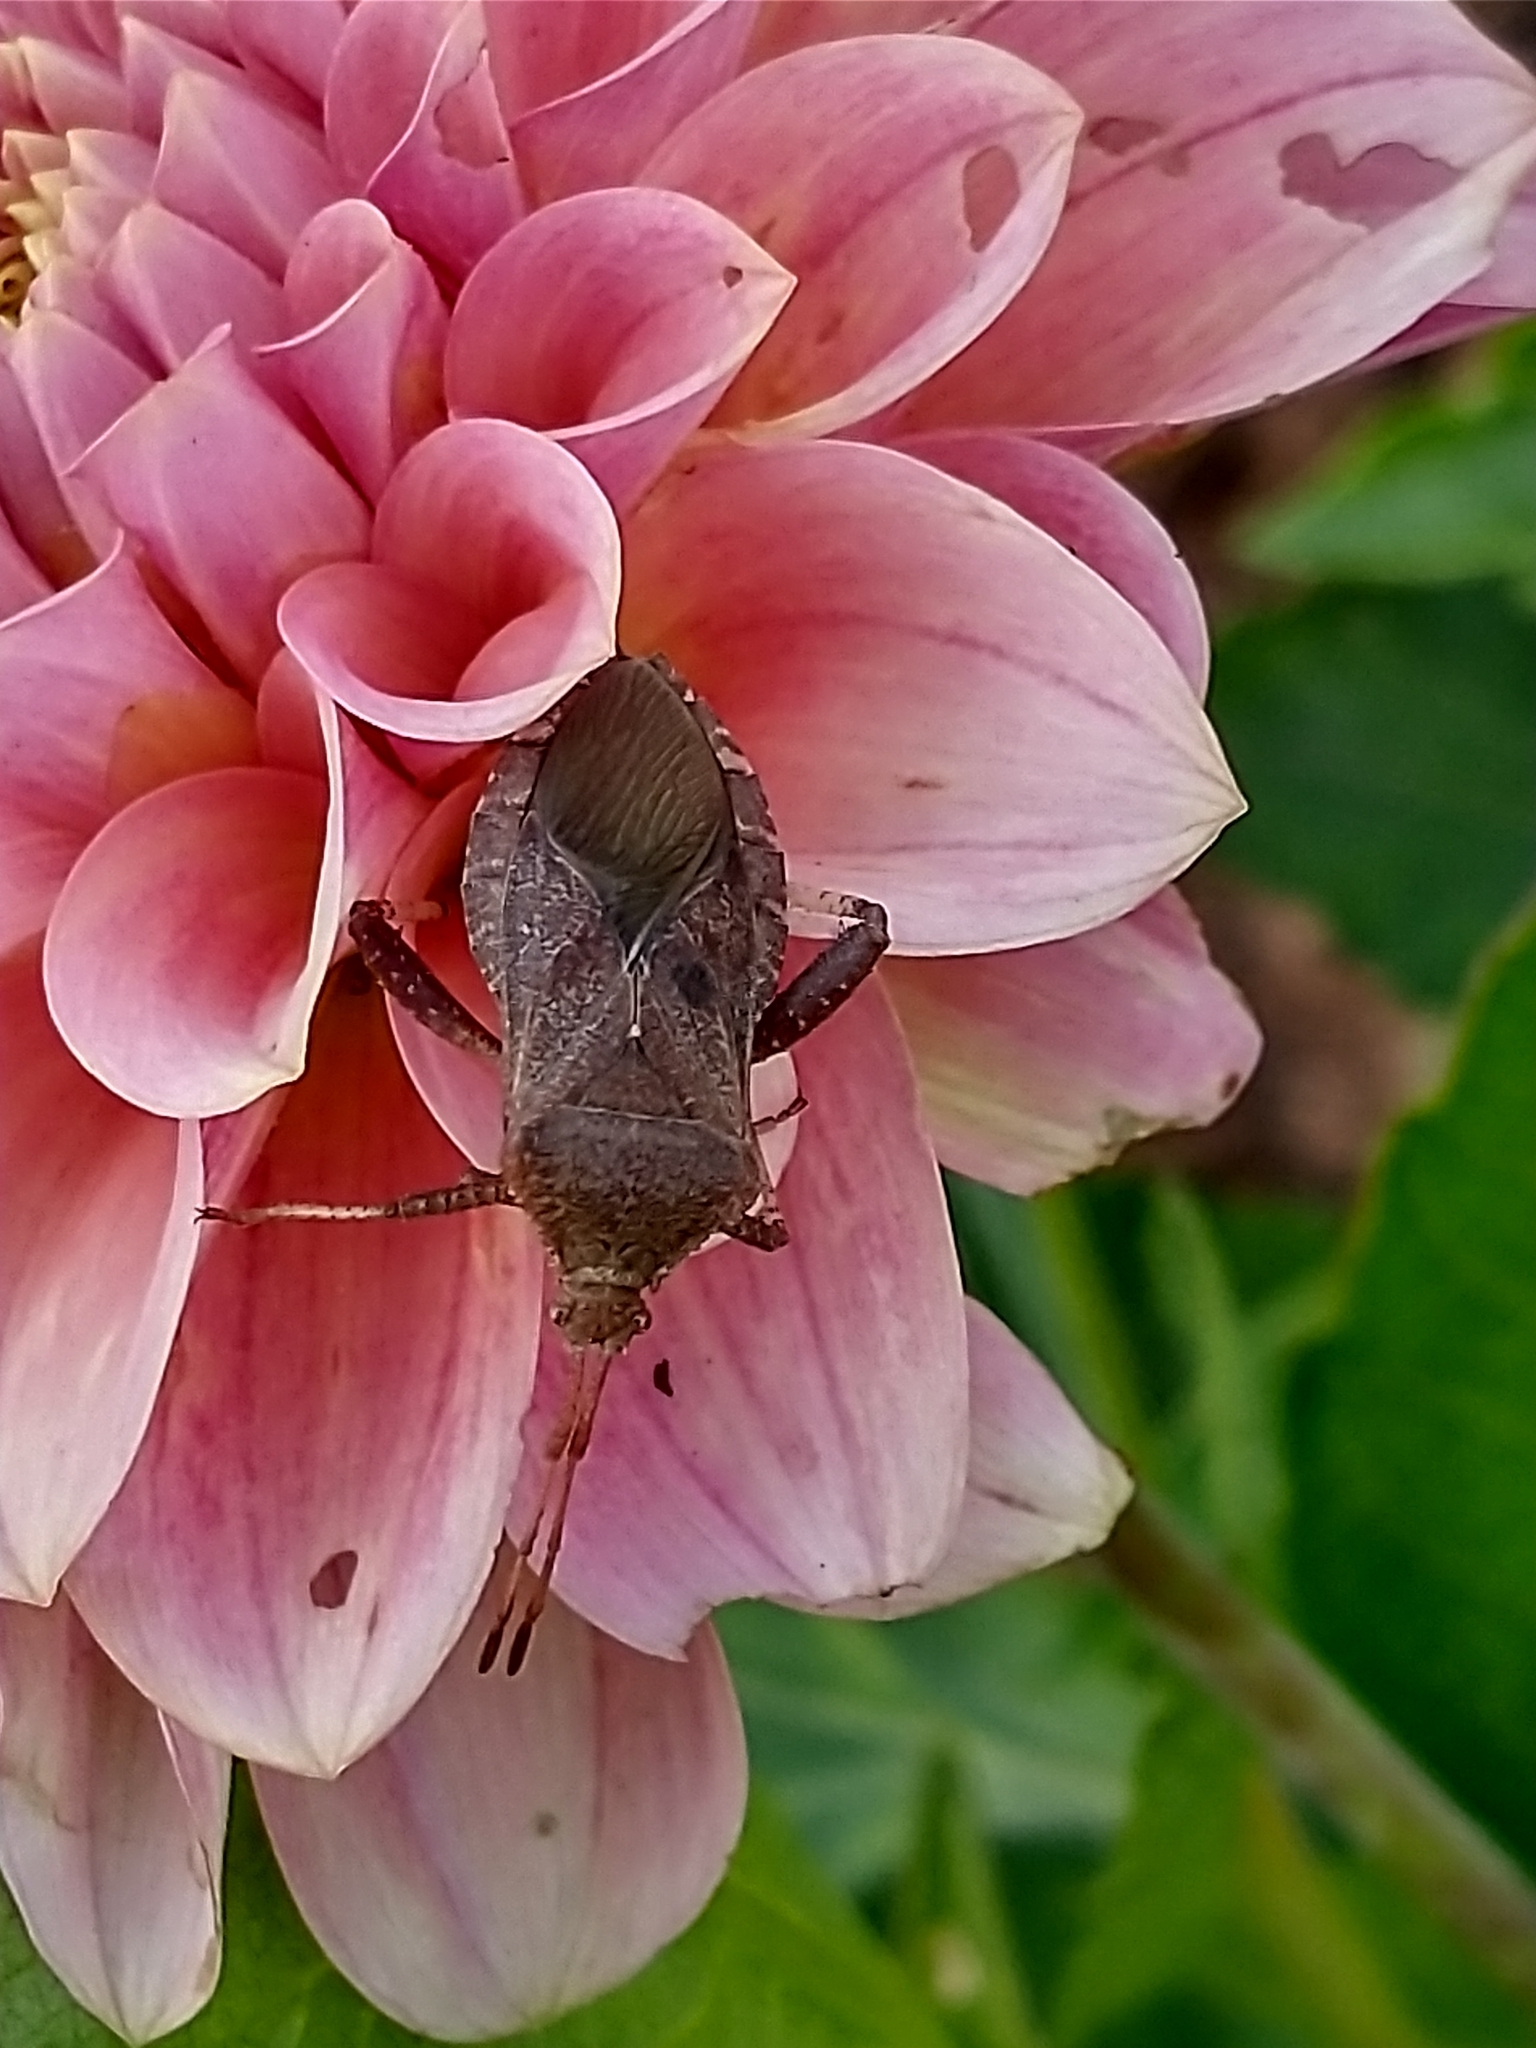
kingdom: Animalia
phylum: Arthropoda
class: Insecta
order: Hemiptera
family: Coreidae
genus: Euthochtha
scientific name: Euthochtha galeator
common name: Helmeted squash bug
